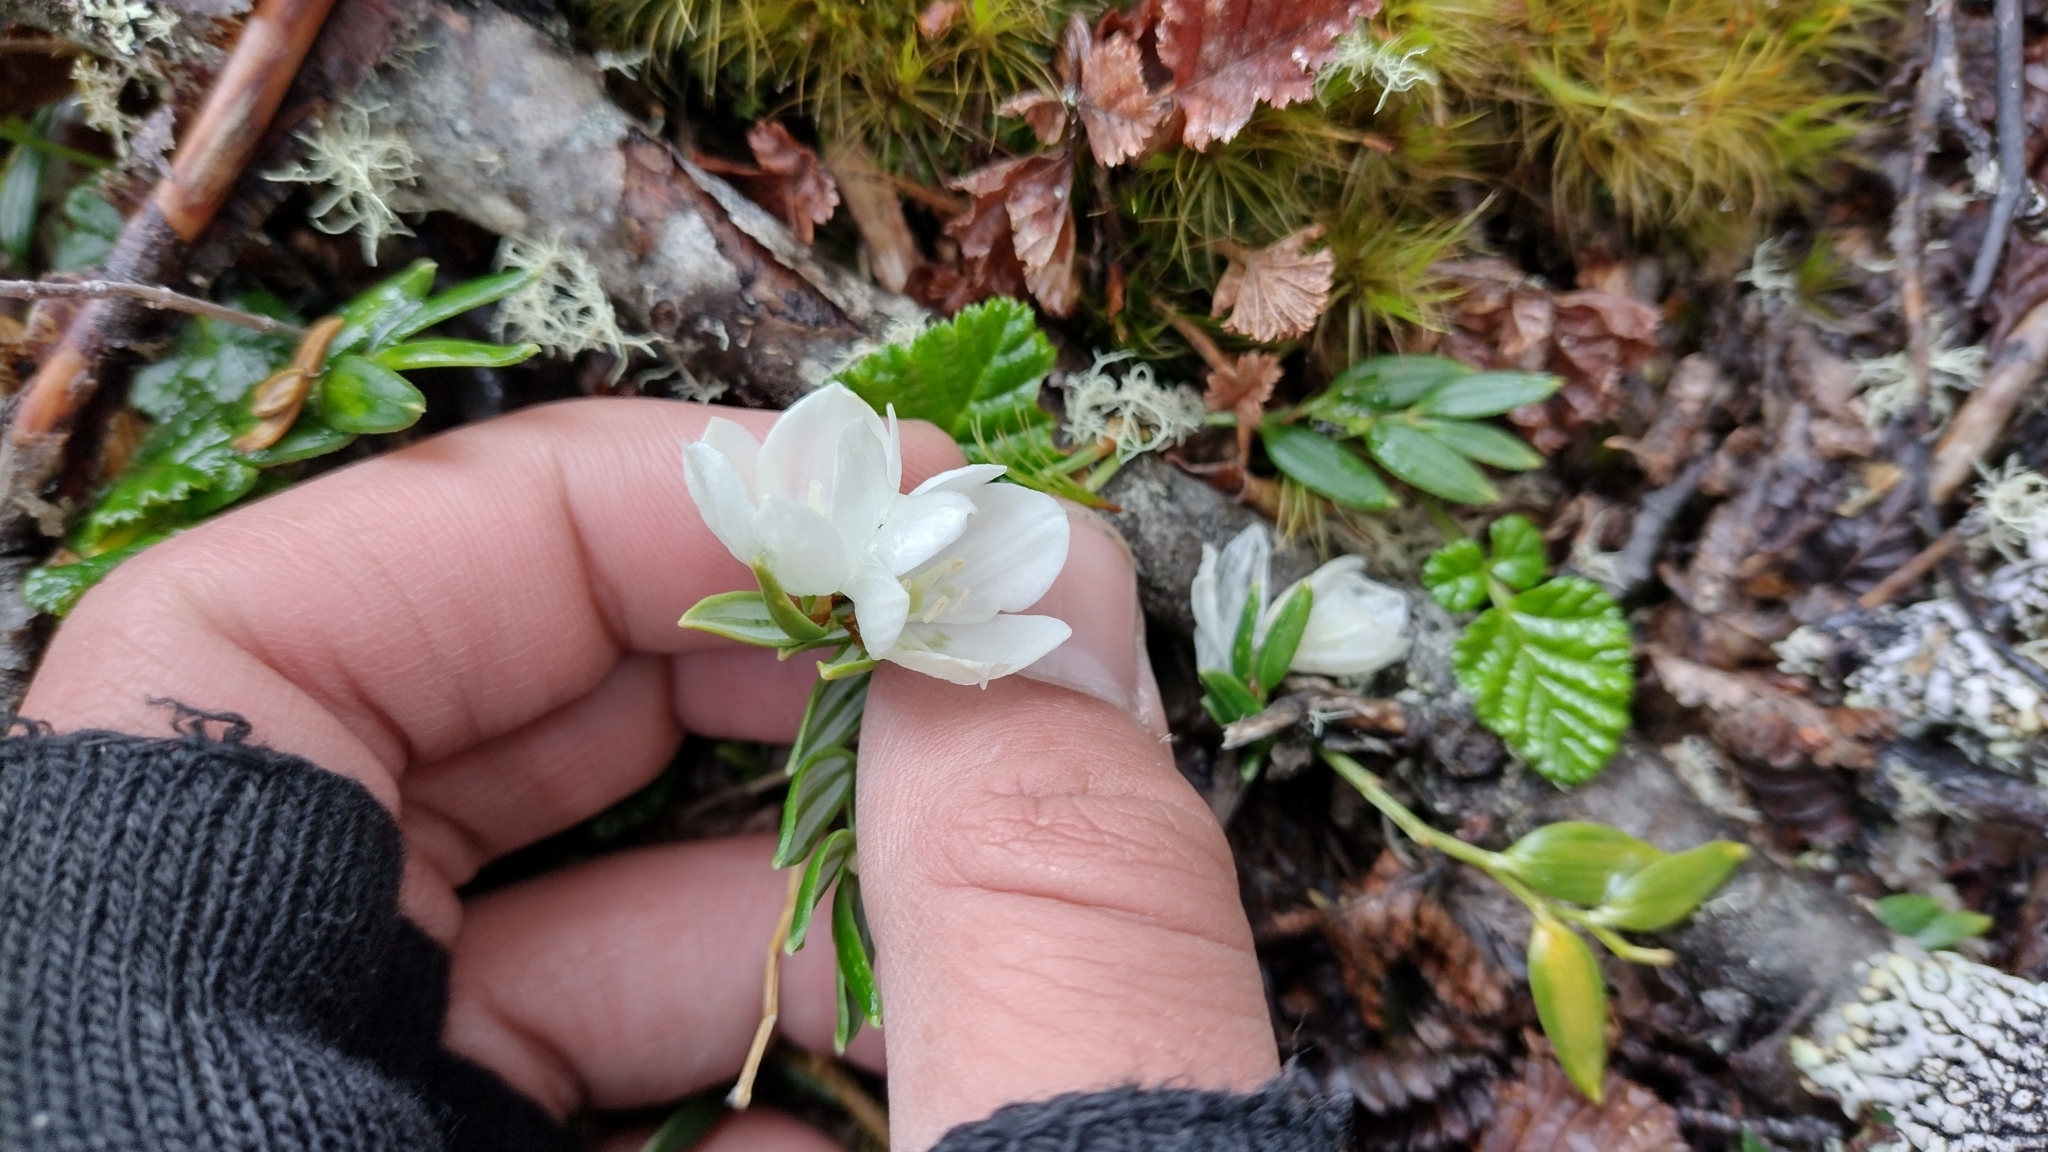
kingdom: Plantae
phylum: Tracheophyta
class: Liliopsida
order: Liliales
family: Alstroemeriaceae
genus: Luzuriaga
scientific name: Luzuriaga marginata
